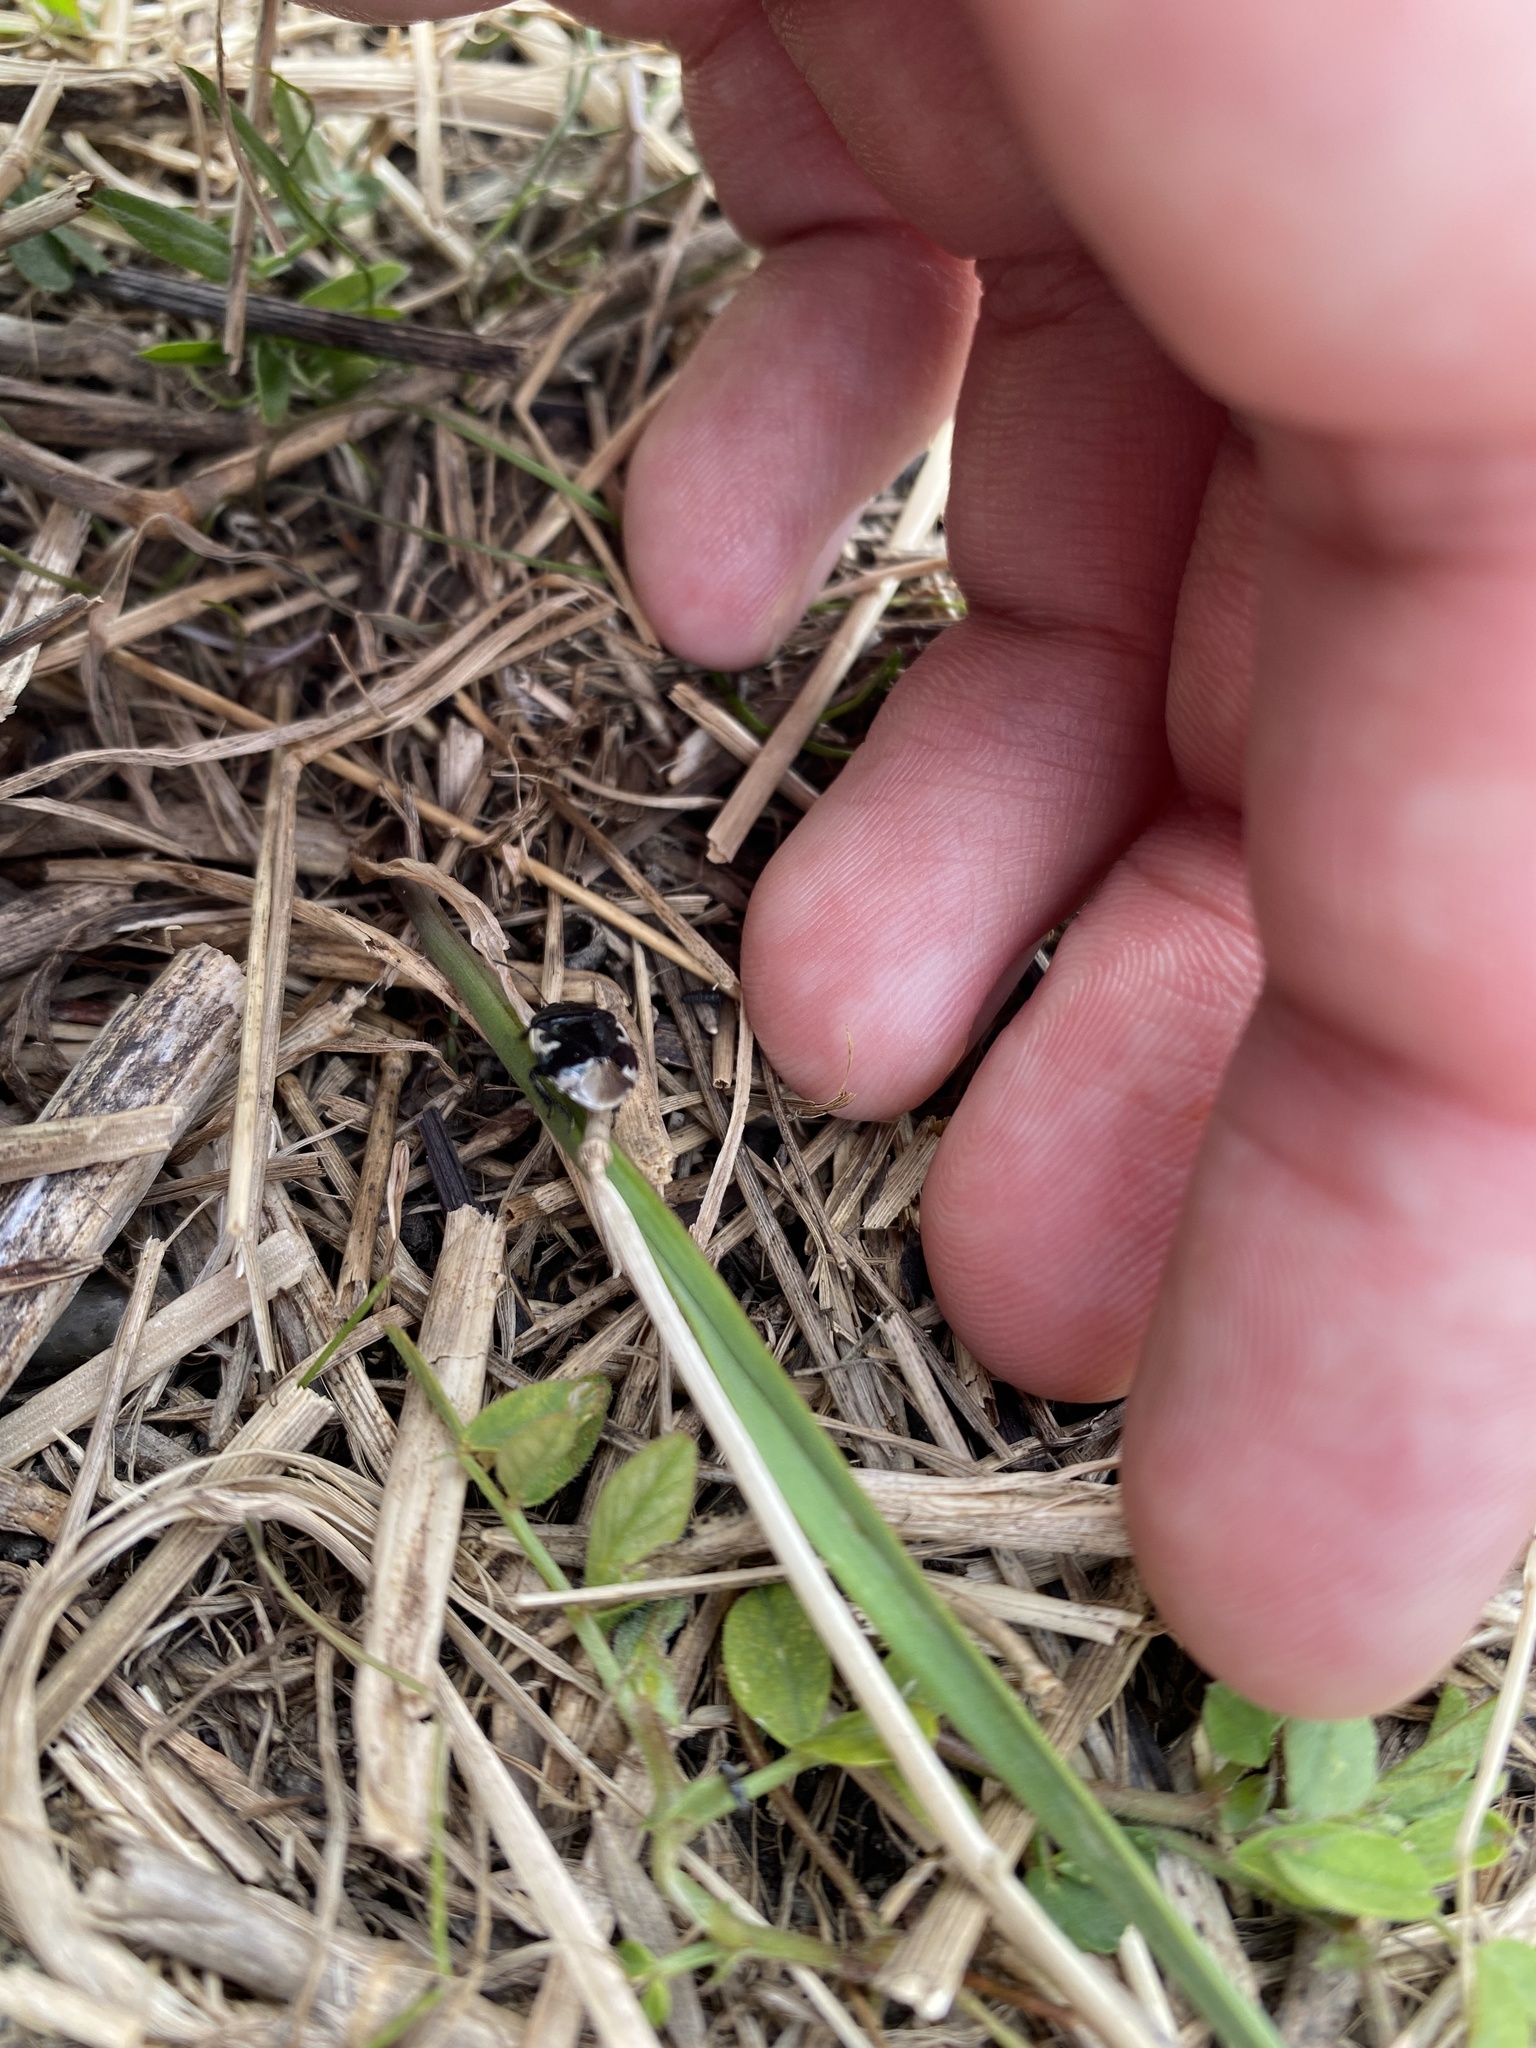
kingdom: Animalia
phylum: Arthropoda
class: Insecta
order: Hemiptera
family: Cydnidae
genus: Tritomegas
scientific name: Tritomegas bicolor
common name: Pied shieldbug
